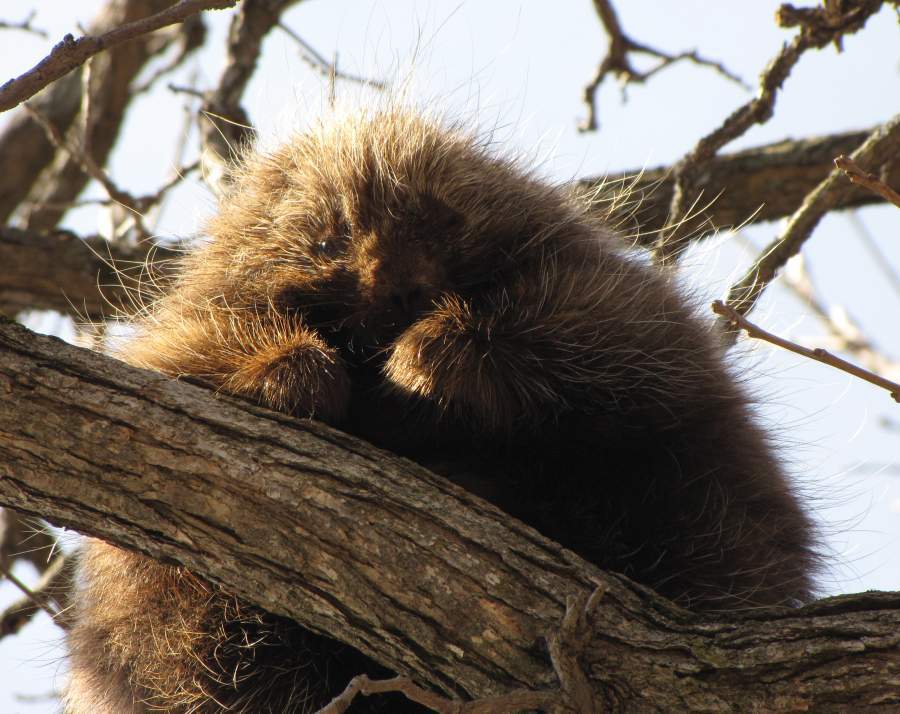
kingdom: Animalia
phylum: Chordata
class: Mammalia
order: Rodentia
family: Erethizontidae
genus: Erethizon
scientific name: Erethizon dorsatus
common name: North american porcupine
